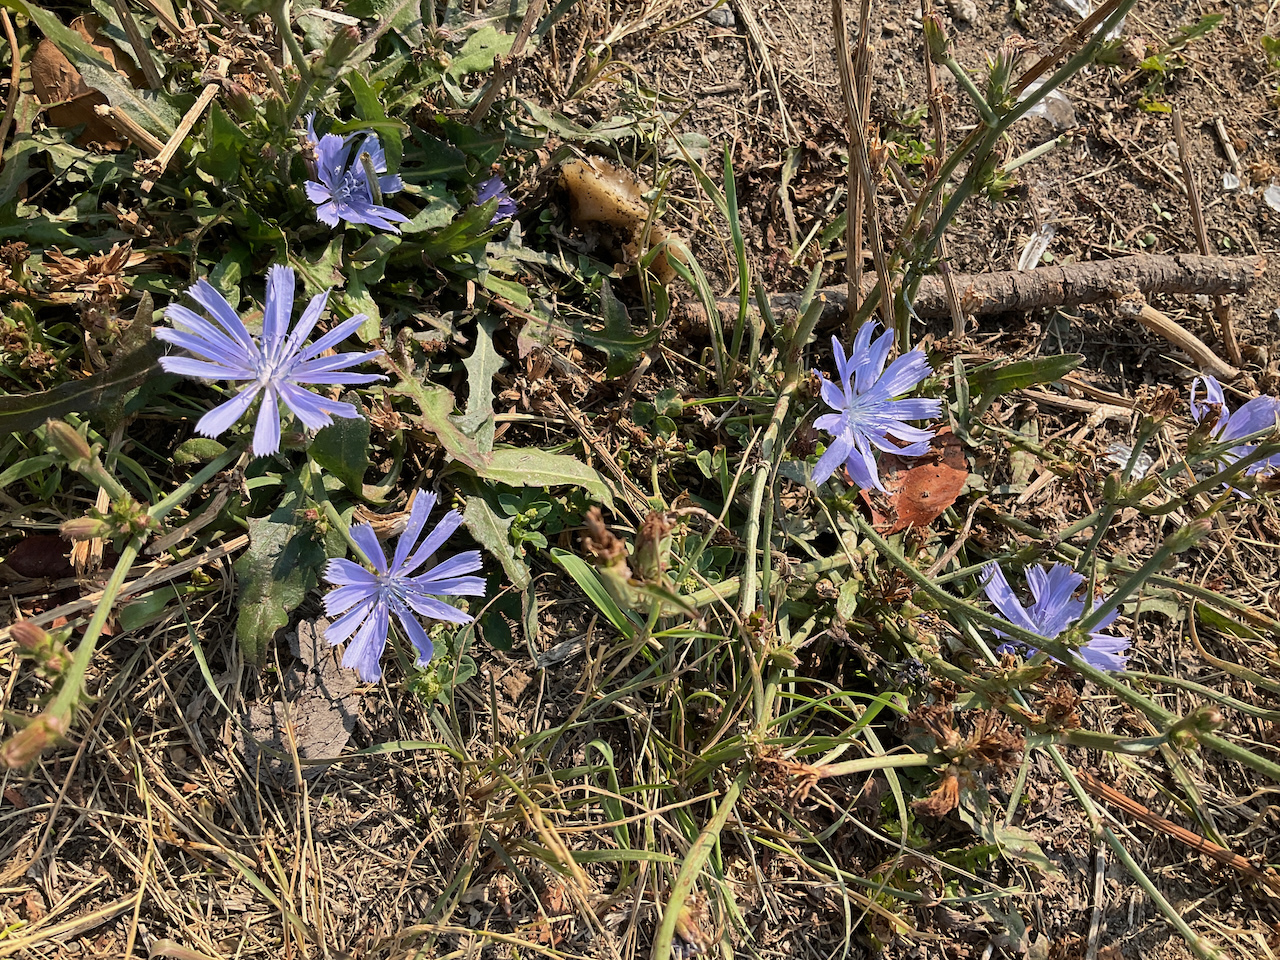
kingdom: Plantae
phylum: Tracheophyta
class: Magnoliopsida
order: Asterales
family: Asteraceae
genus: Cichorium
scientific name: Cichorium intybus
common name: Chicory
